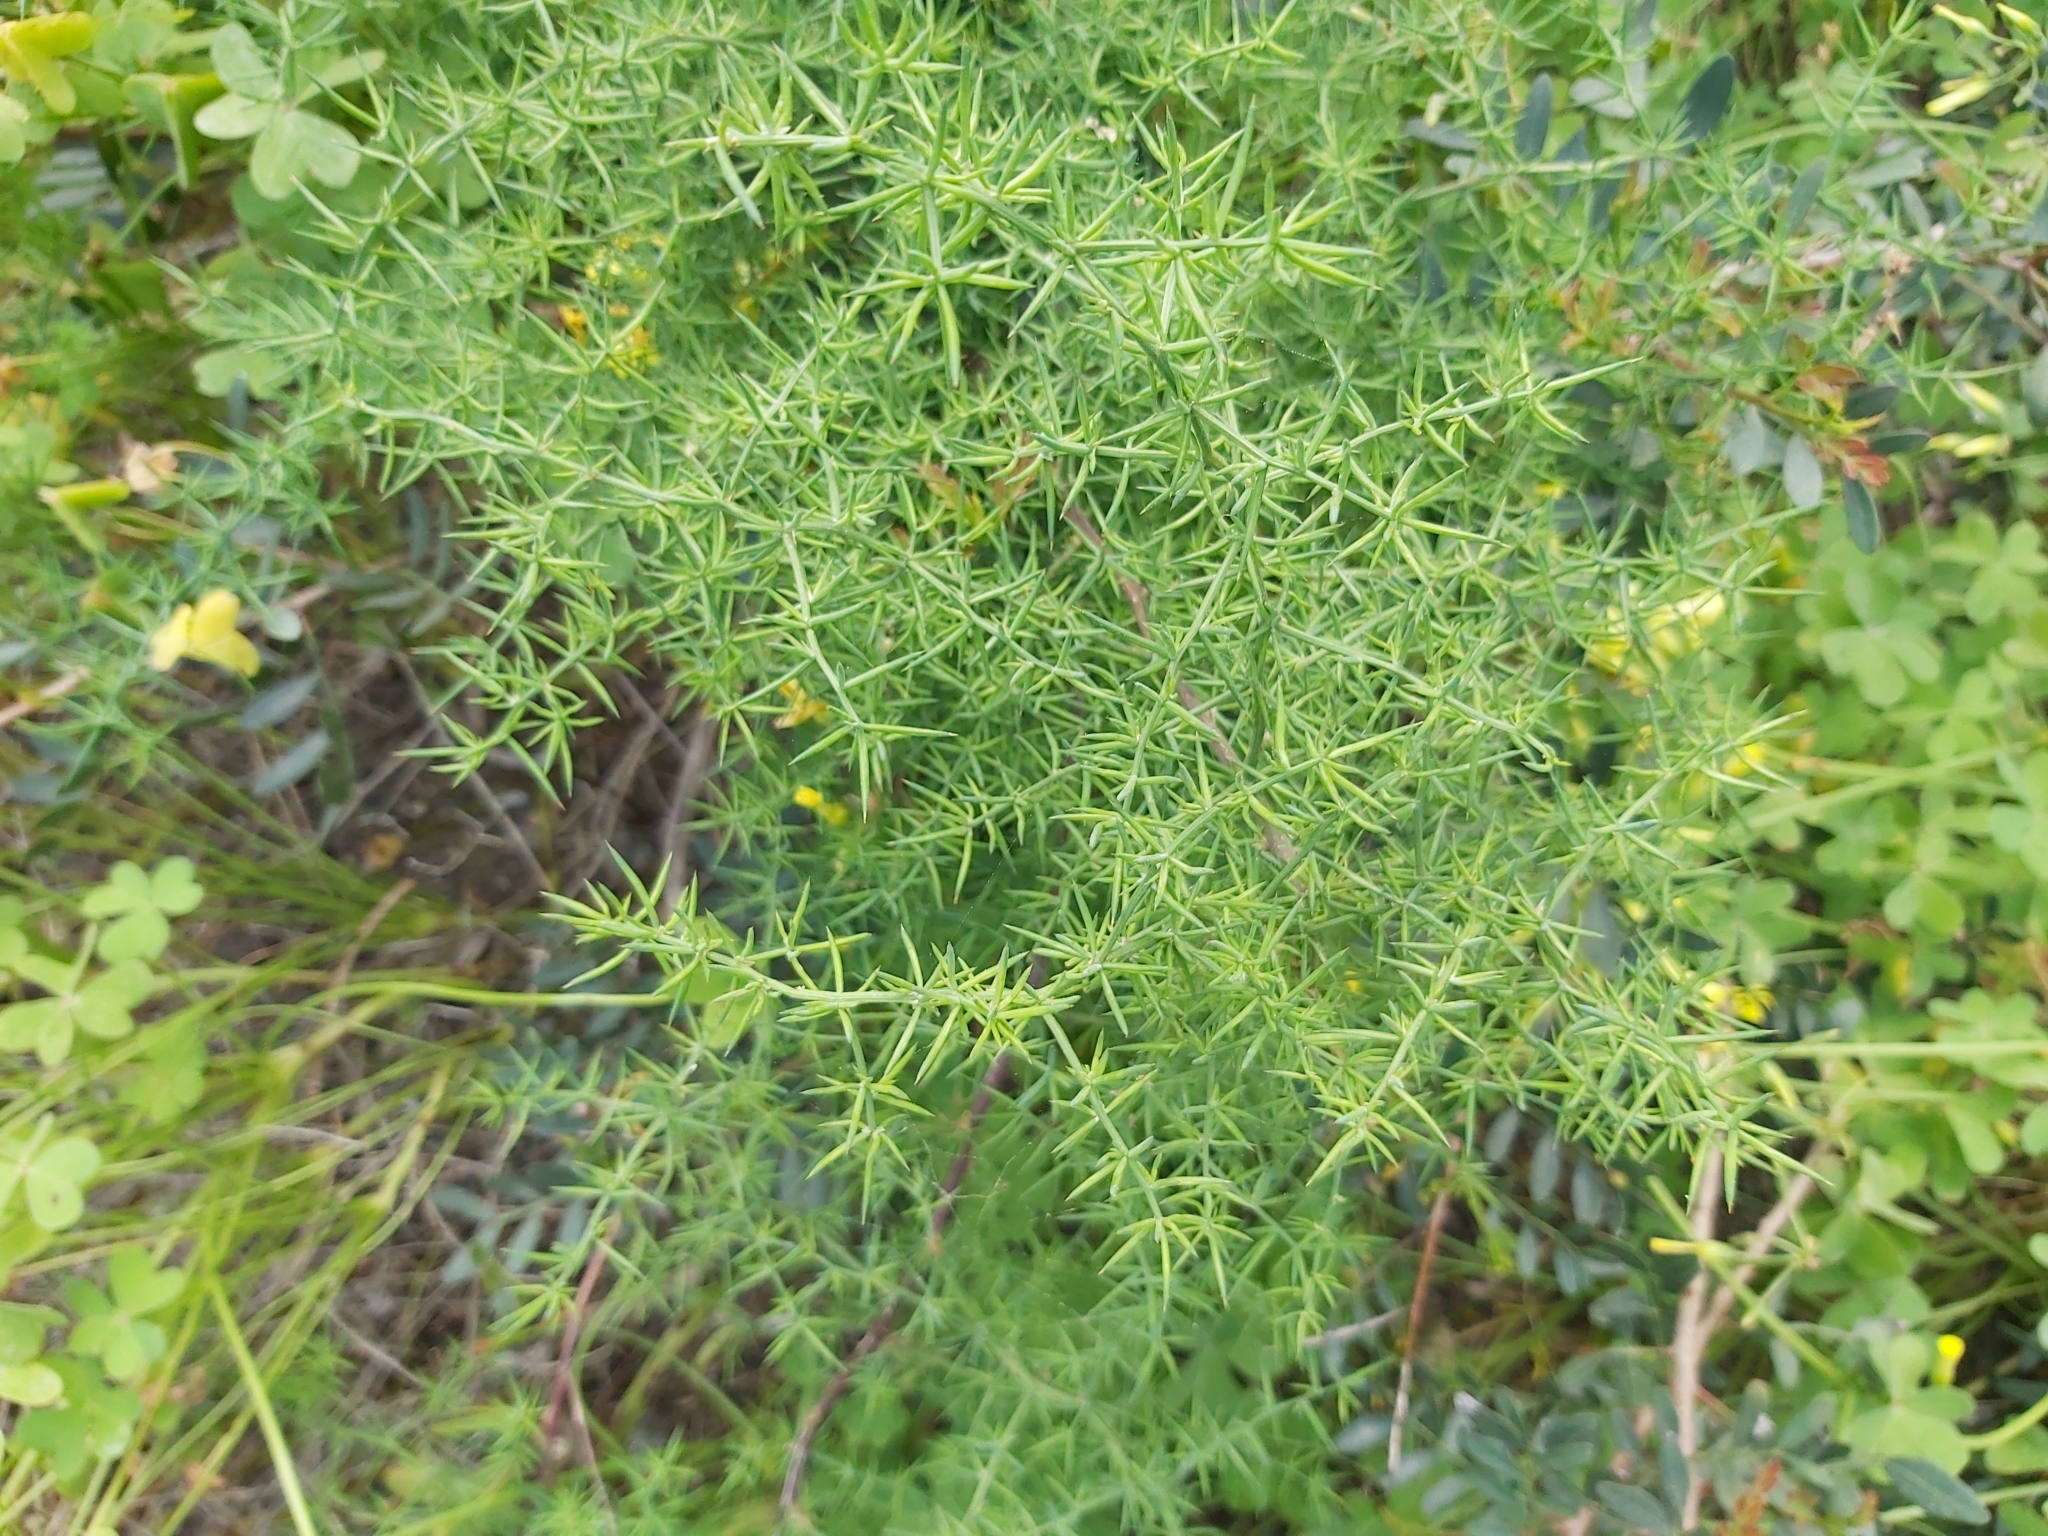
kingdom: Plantae
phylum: Tracheophyta
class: Liliopsida
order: Asparagales
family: Asparagaceae
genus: Asparagus
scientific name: Asparagus aphyllus
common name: Mediterranean asparagus
